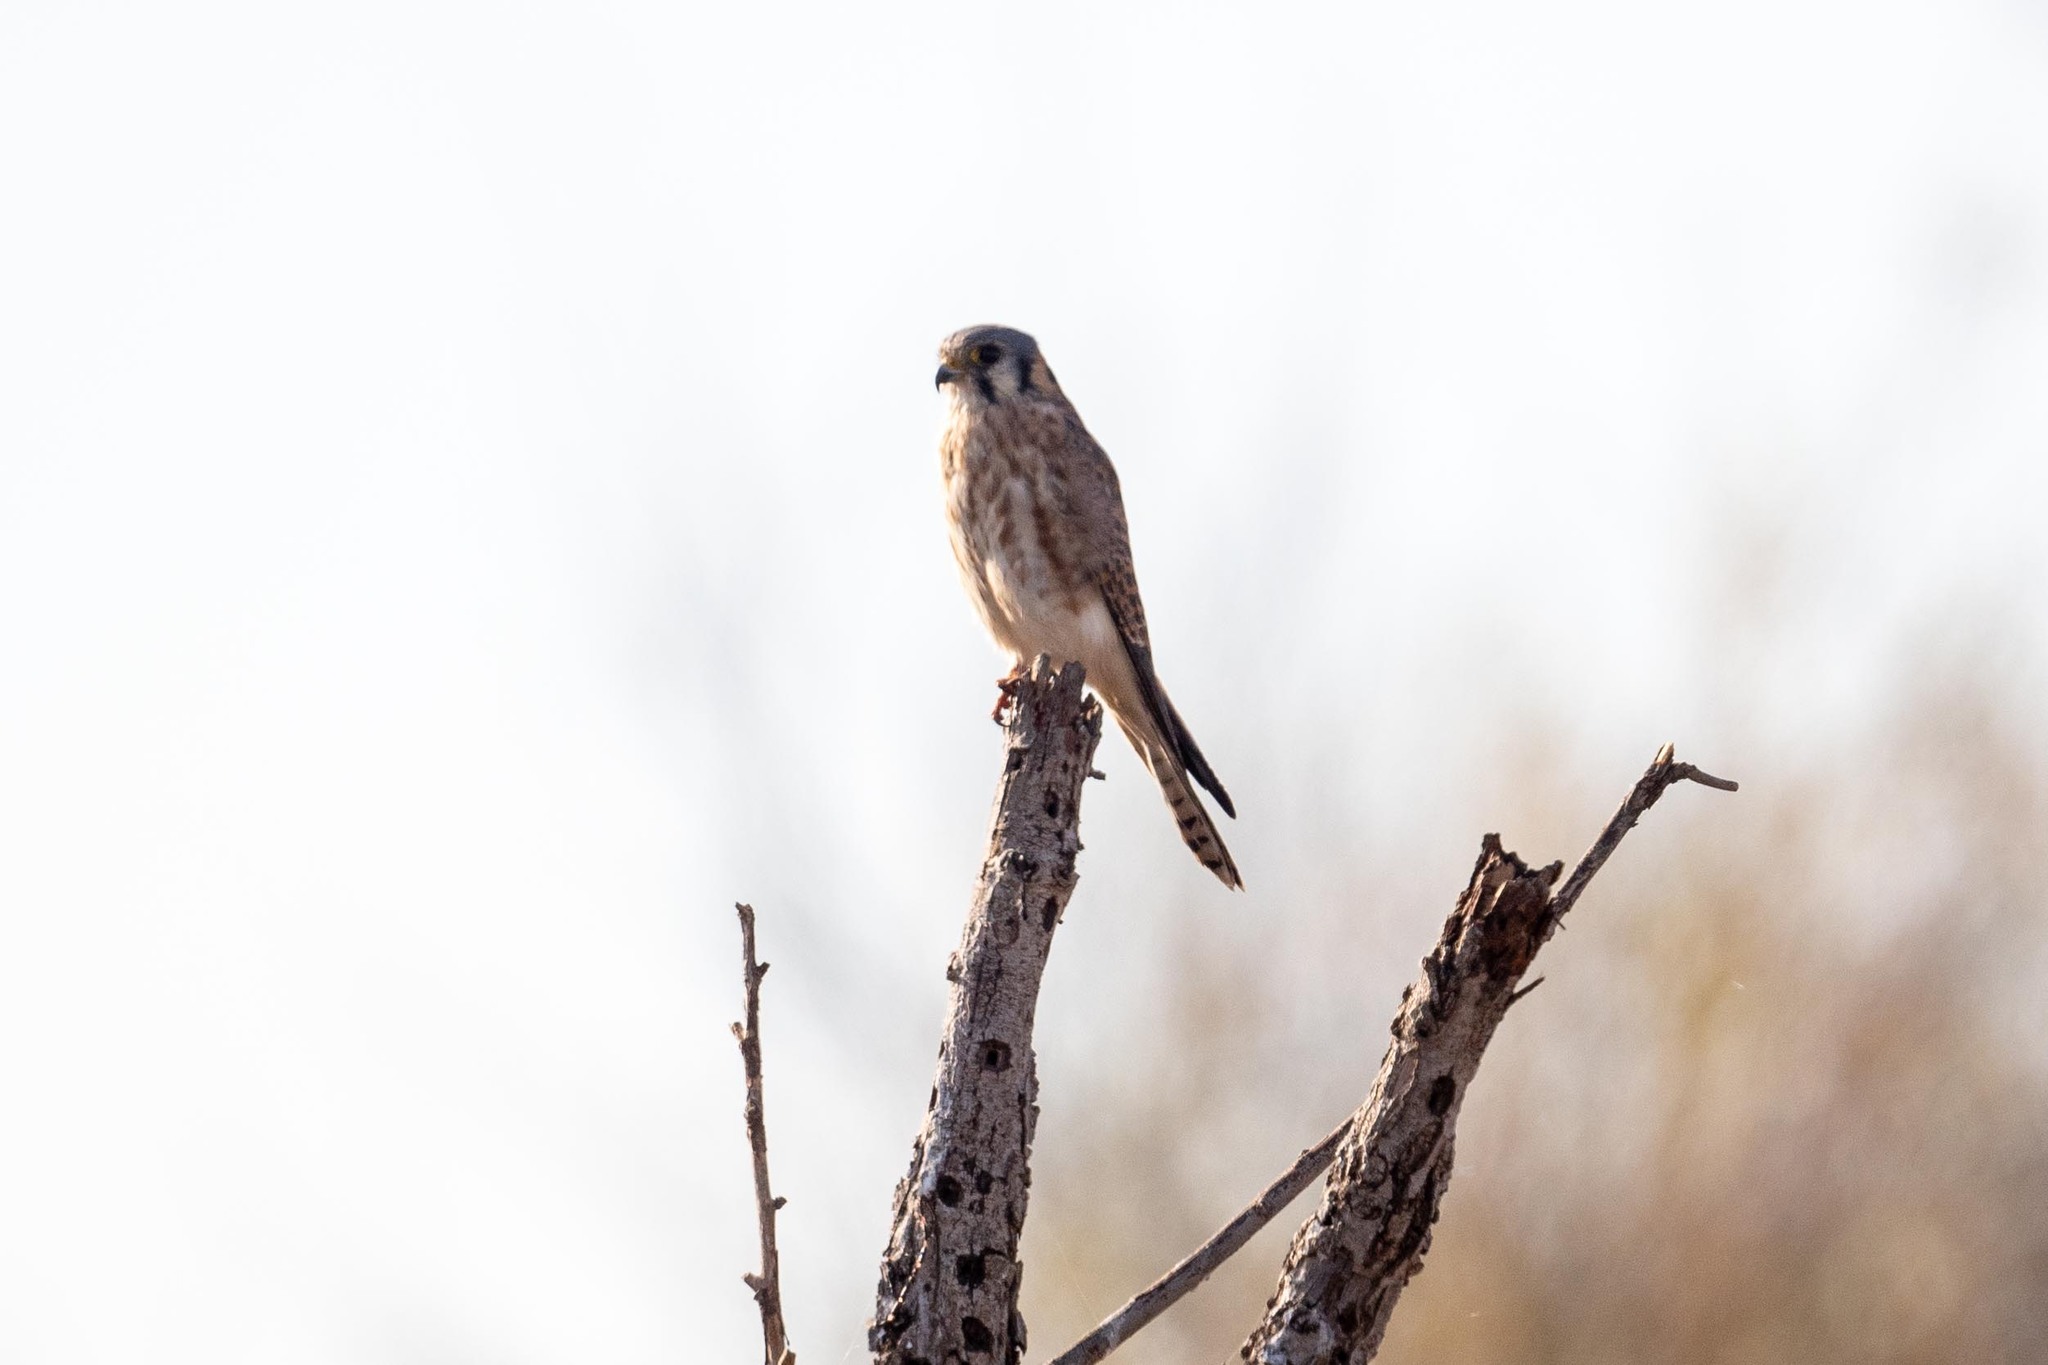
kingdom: Animalia
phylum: Chordata
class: Aves
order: Falconiformes
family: Falconidae
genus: Falco
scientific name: Falco sparverius
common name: American kestrel
